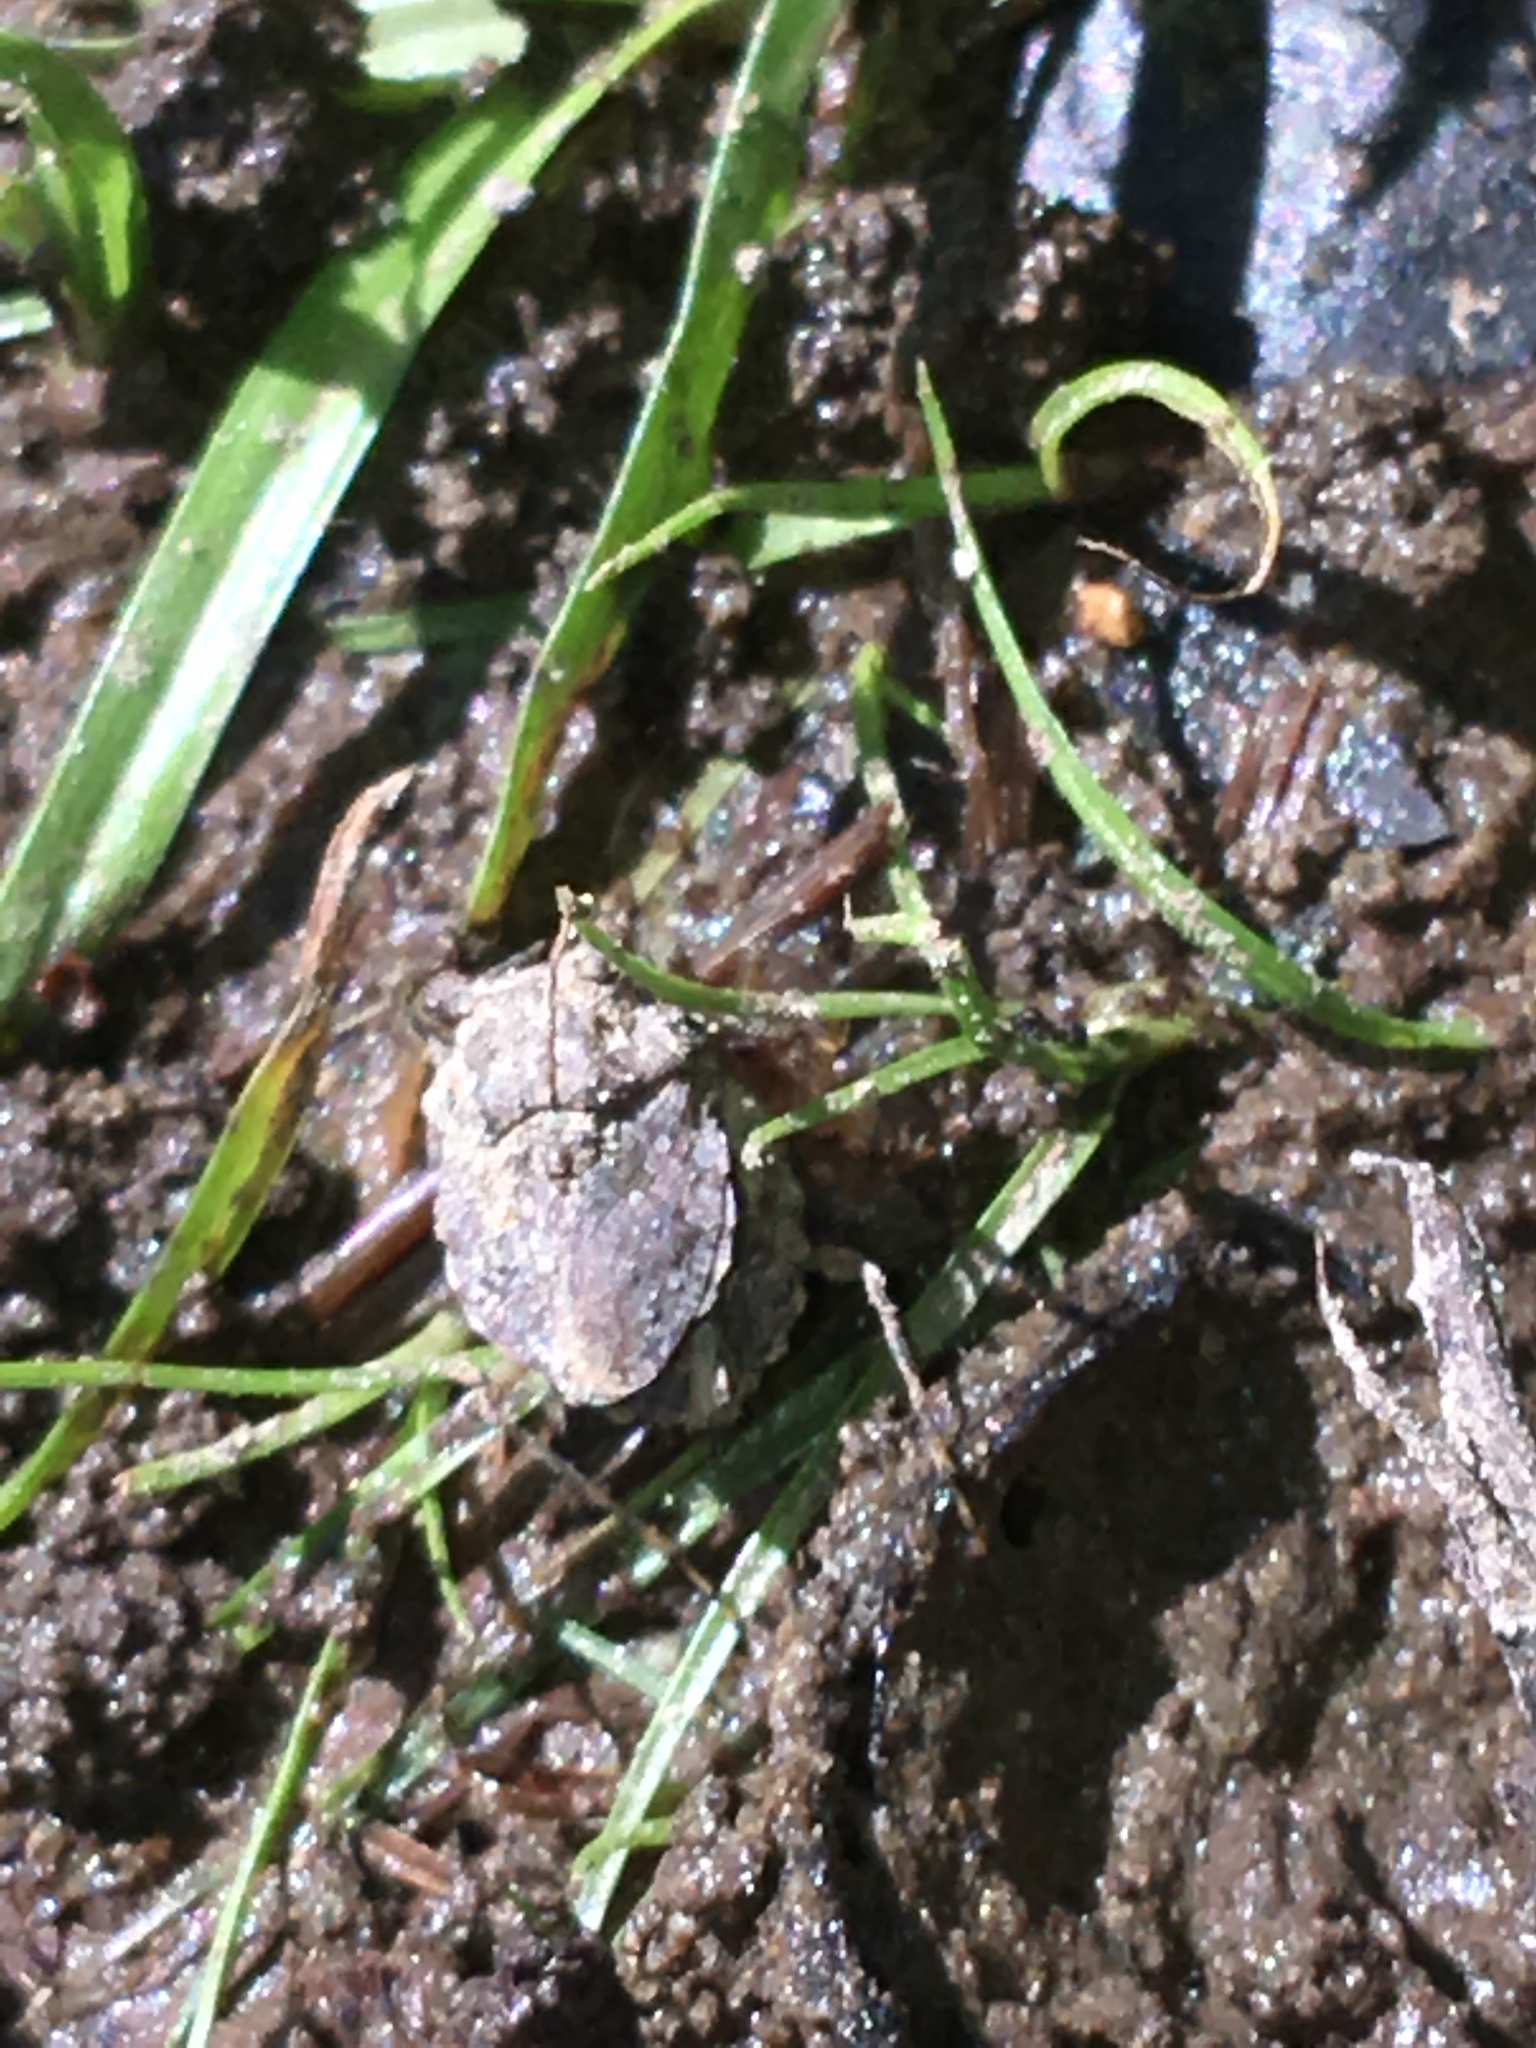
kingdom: Animalia
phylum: Arthropoda
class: Insecta
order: Hemiptera
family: Gelastocoridae
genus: Gelastocoris
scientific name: Gelastocoris oculatus
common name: Toad bug
